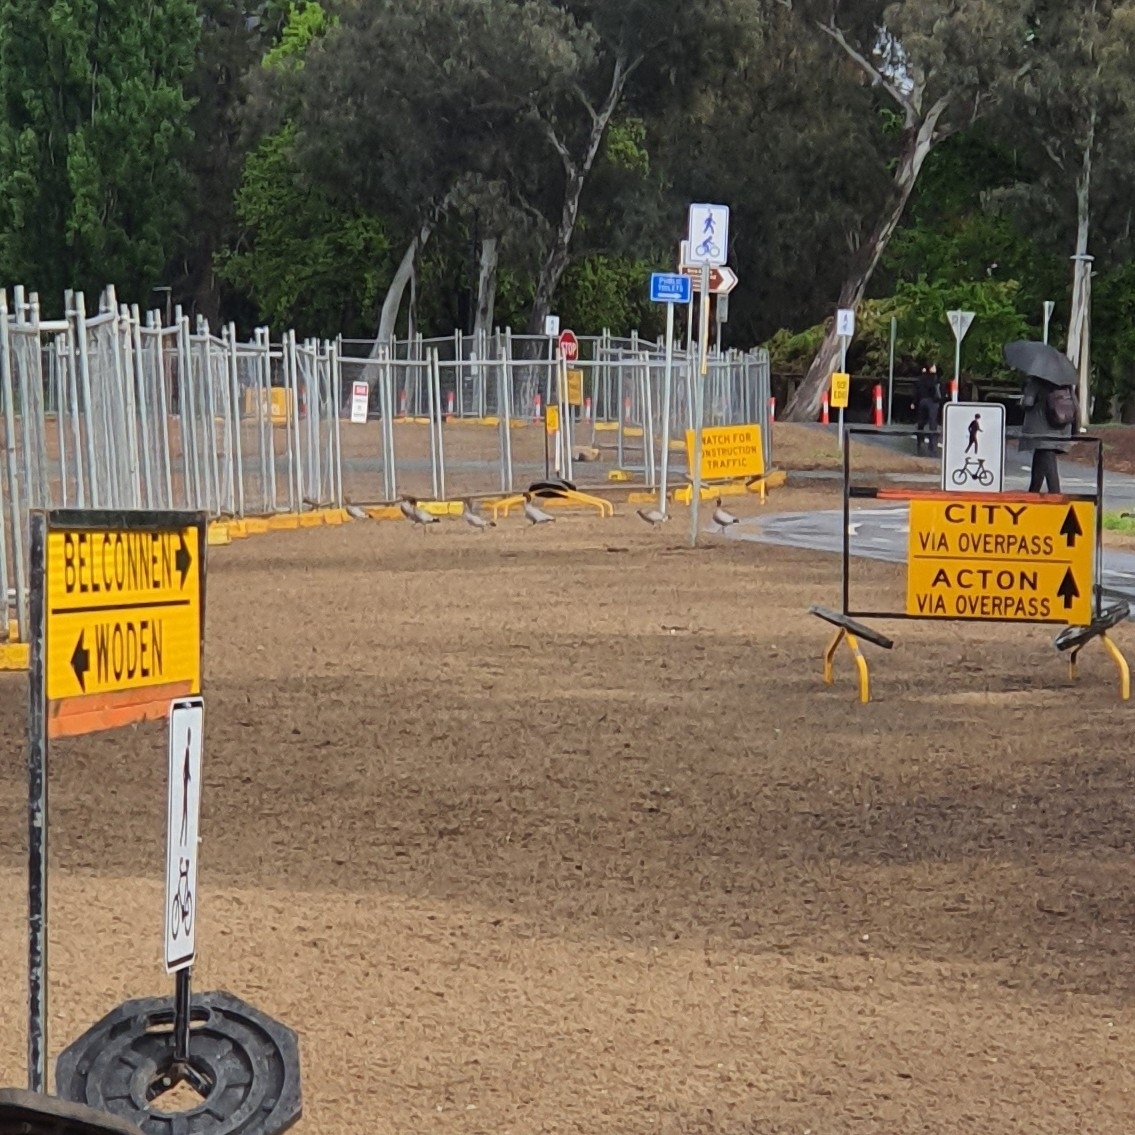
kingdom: Animalia
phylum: Chordata
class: Aves
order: Anseriformes
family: Anatidae
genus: Chenonetta
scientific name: Chenonetta jubata
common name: Maned duck
